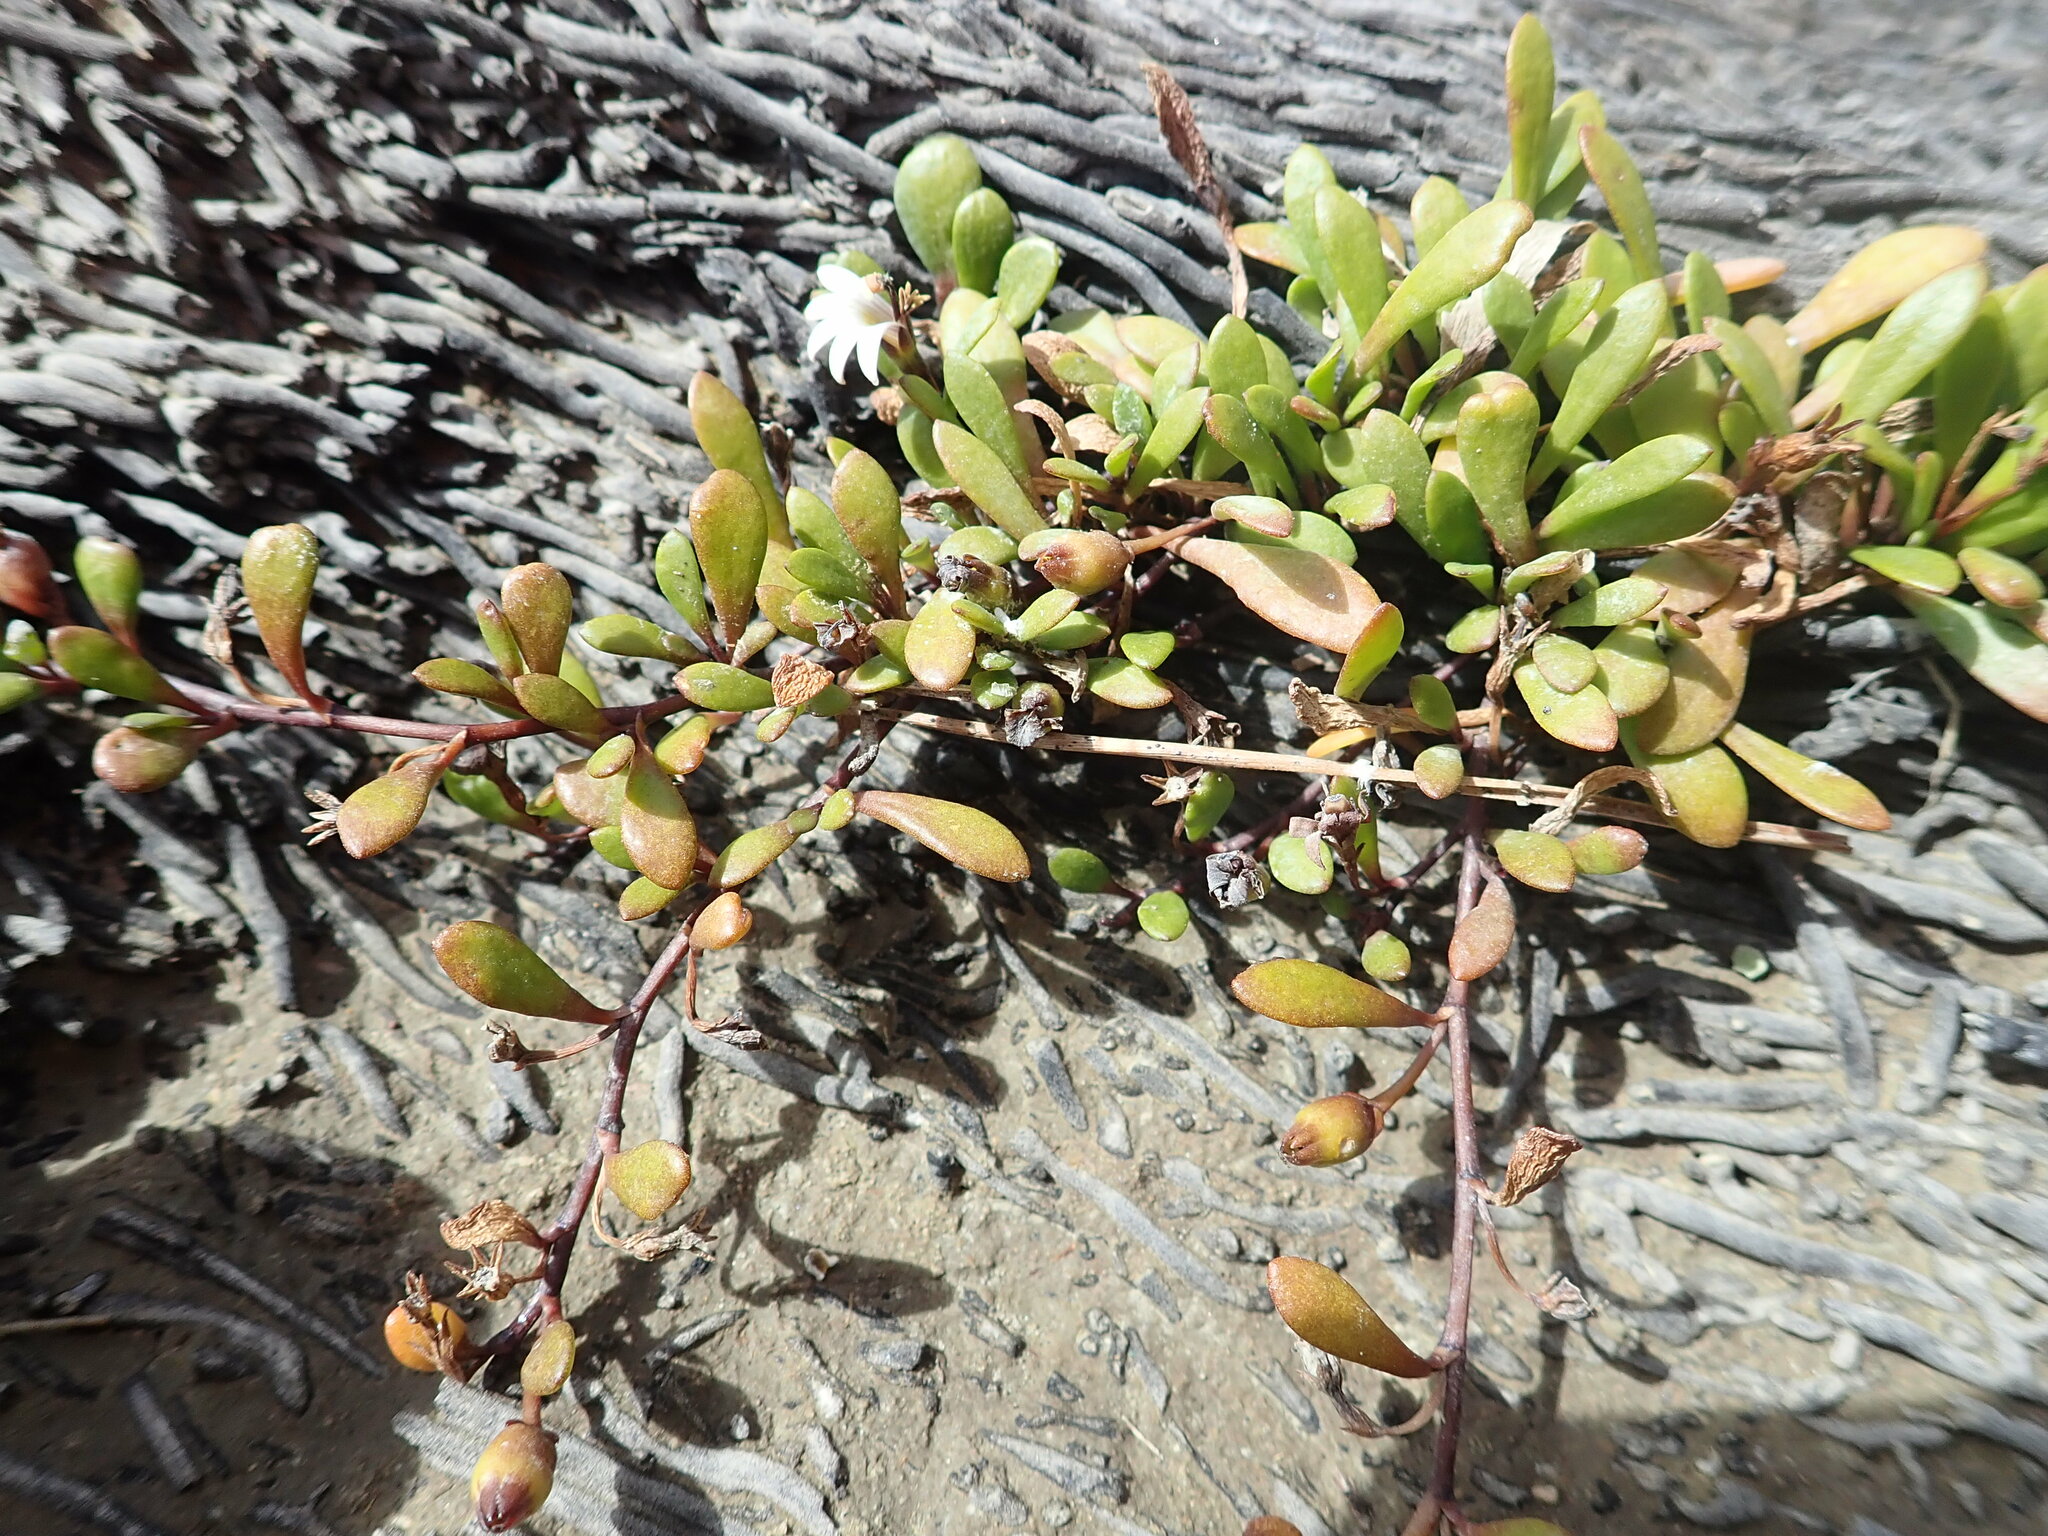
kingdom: Plantae
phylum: Tracheophyta
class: Magnoliopsida
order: Asterales
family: Goodeniaceae
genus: Goodenia
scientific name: Goodenia radicans
